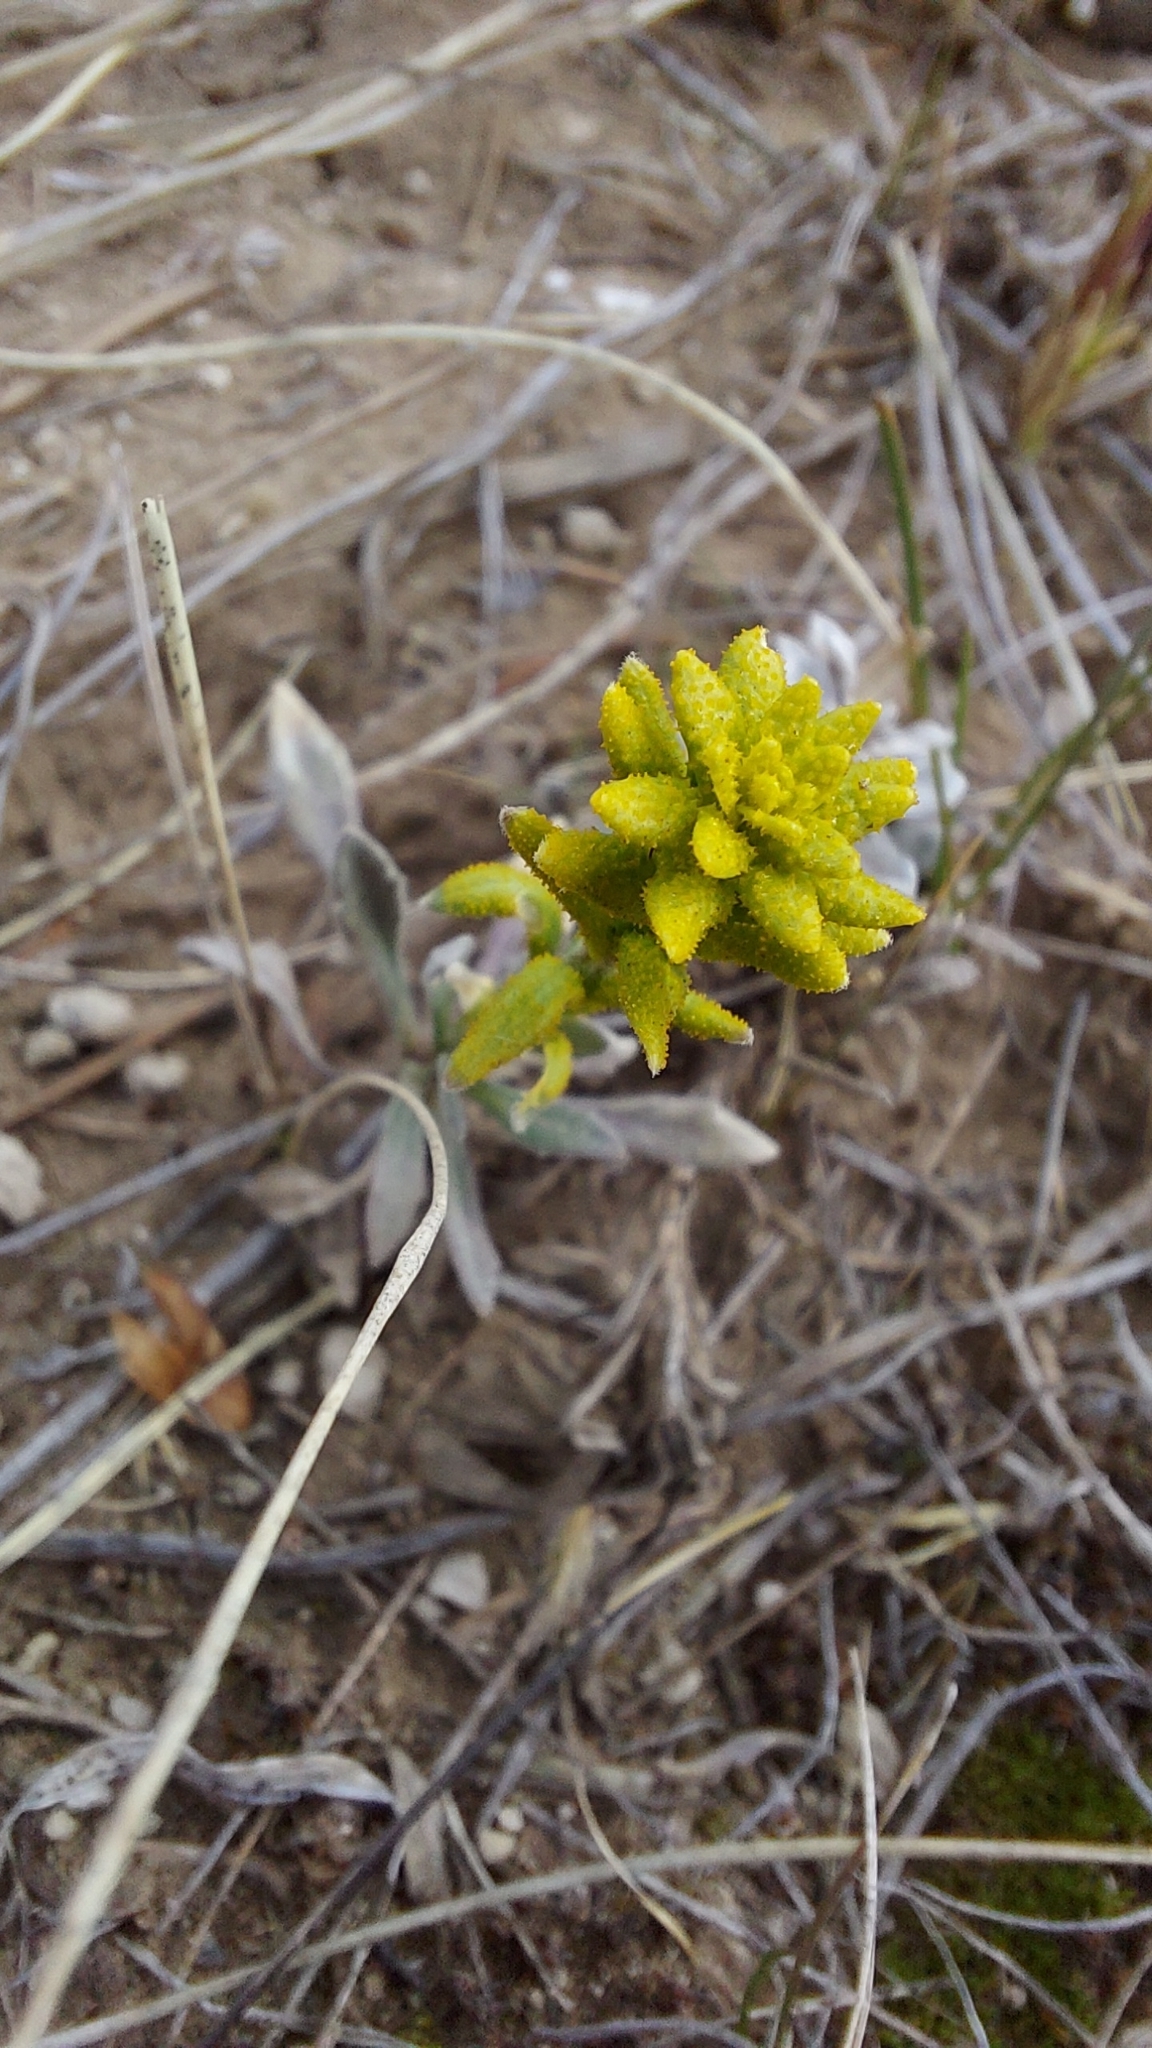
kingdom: Fungi
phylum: Basidiomycota
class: Pucciniomycetes
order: Pucciniales
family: Pucciniaceae
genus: Puccinia
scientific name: Puccinia monoica
